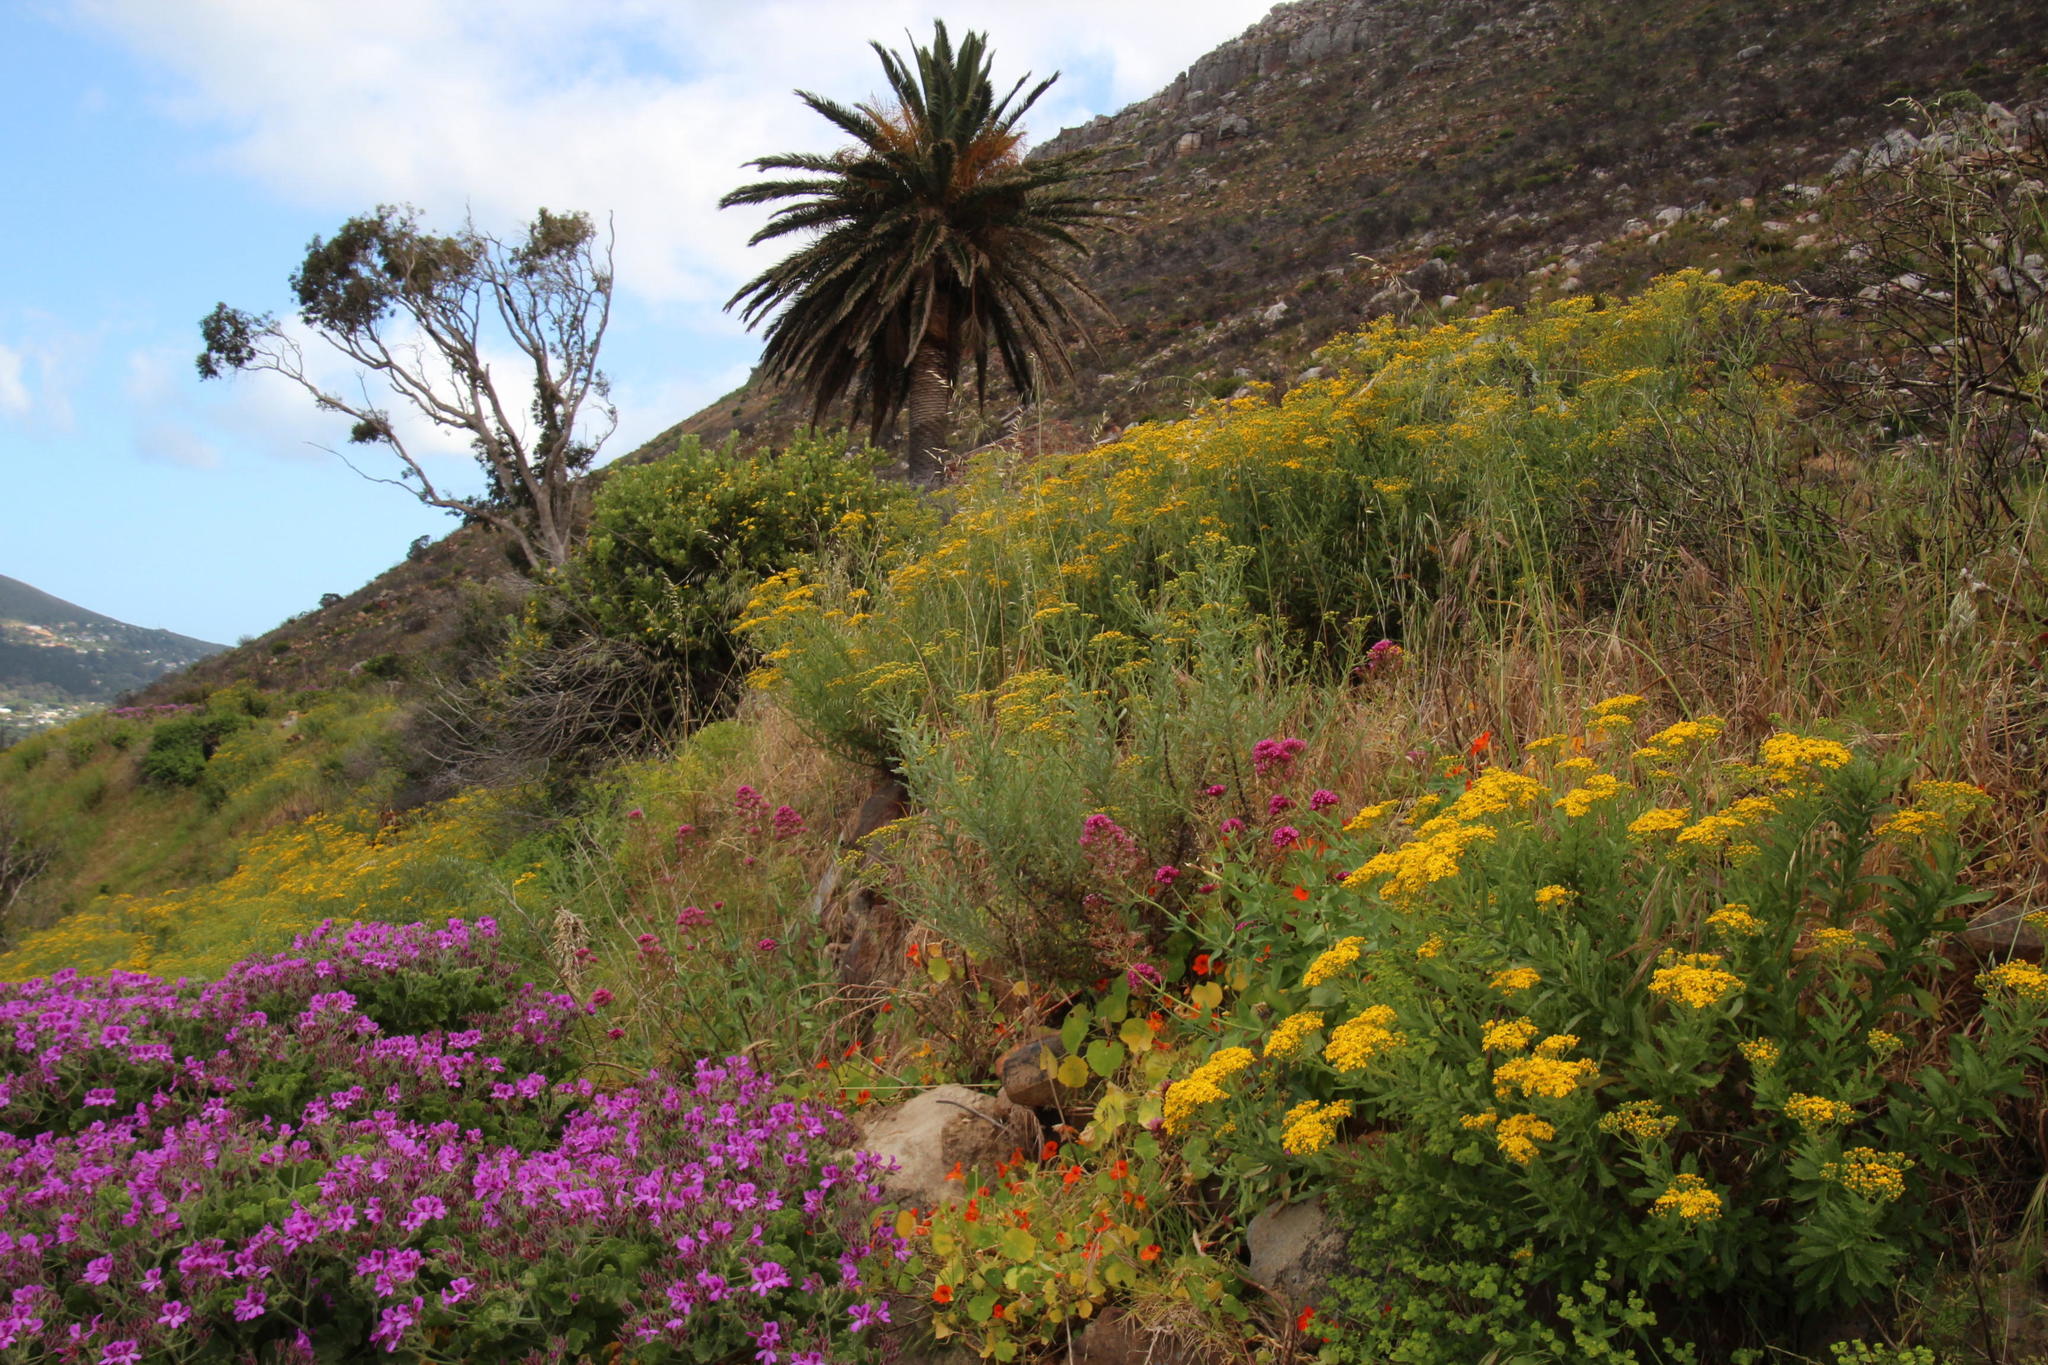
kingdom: Plantae
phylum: Tracheophyta
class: Magnoliopsida
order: Dipsacales
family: Caprifoliaceae
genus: Centranthus
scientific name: Centranthus ruber
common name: Red valerian
